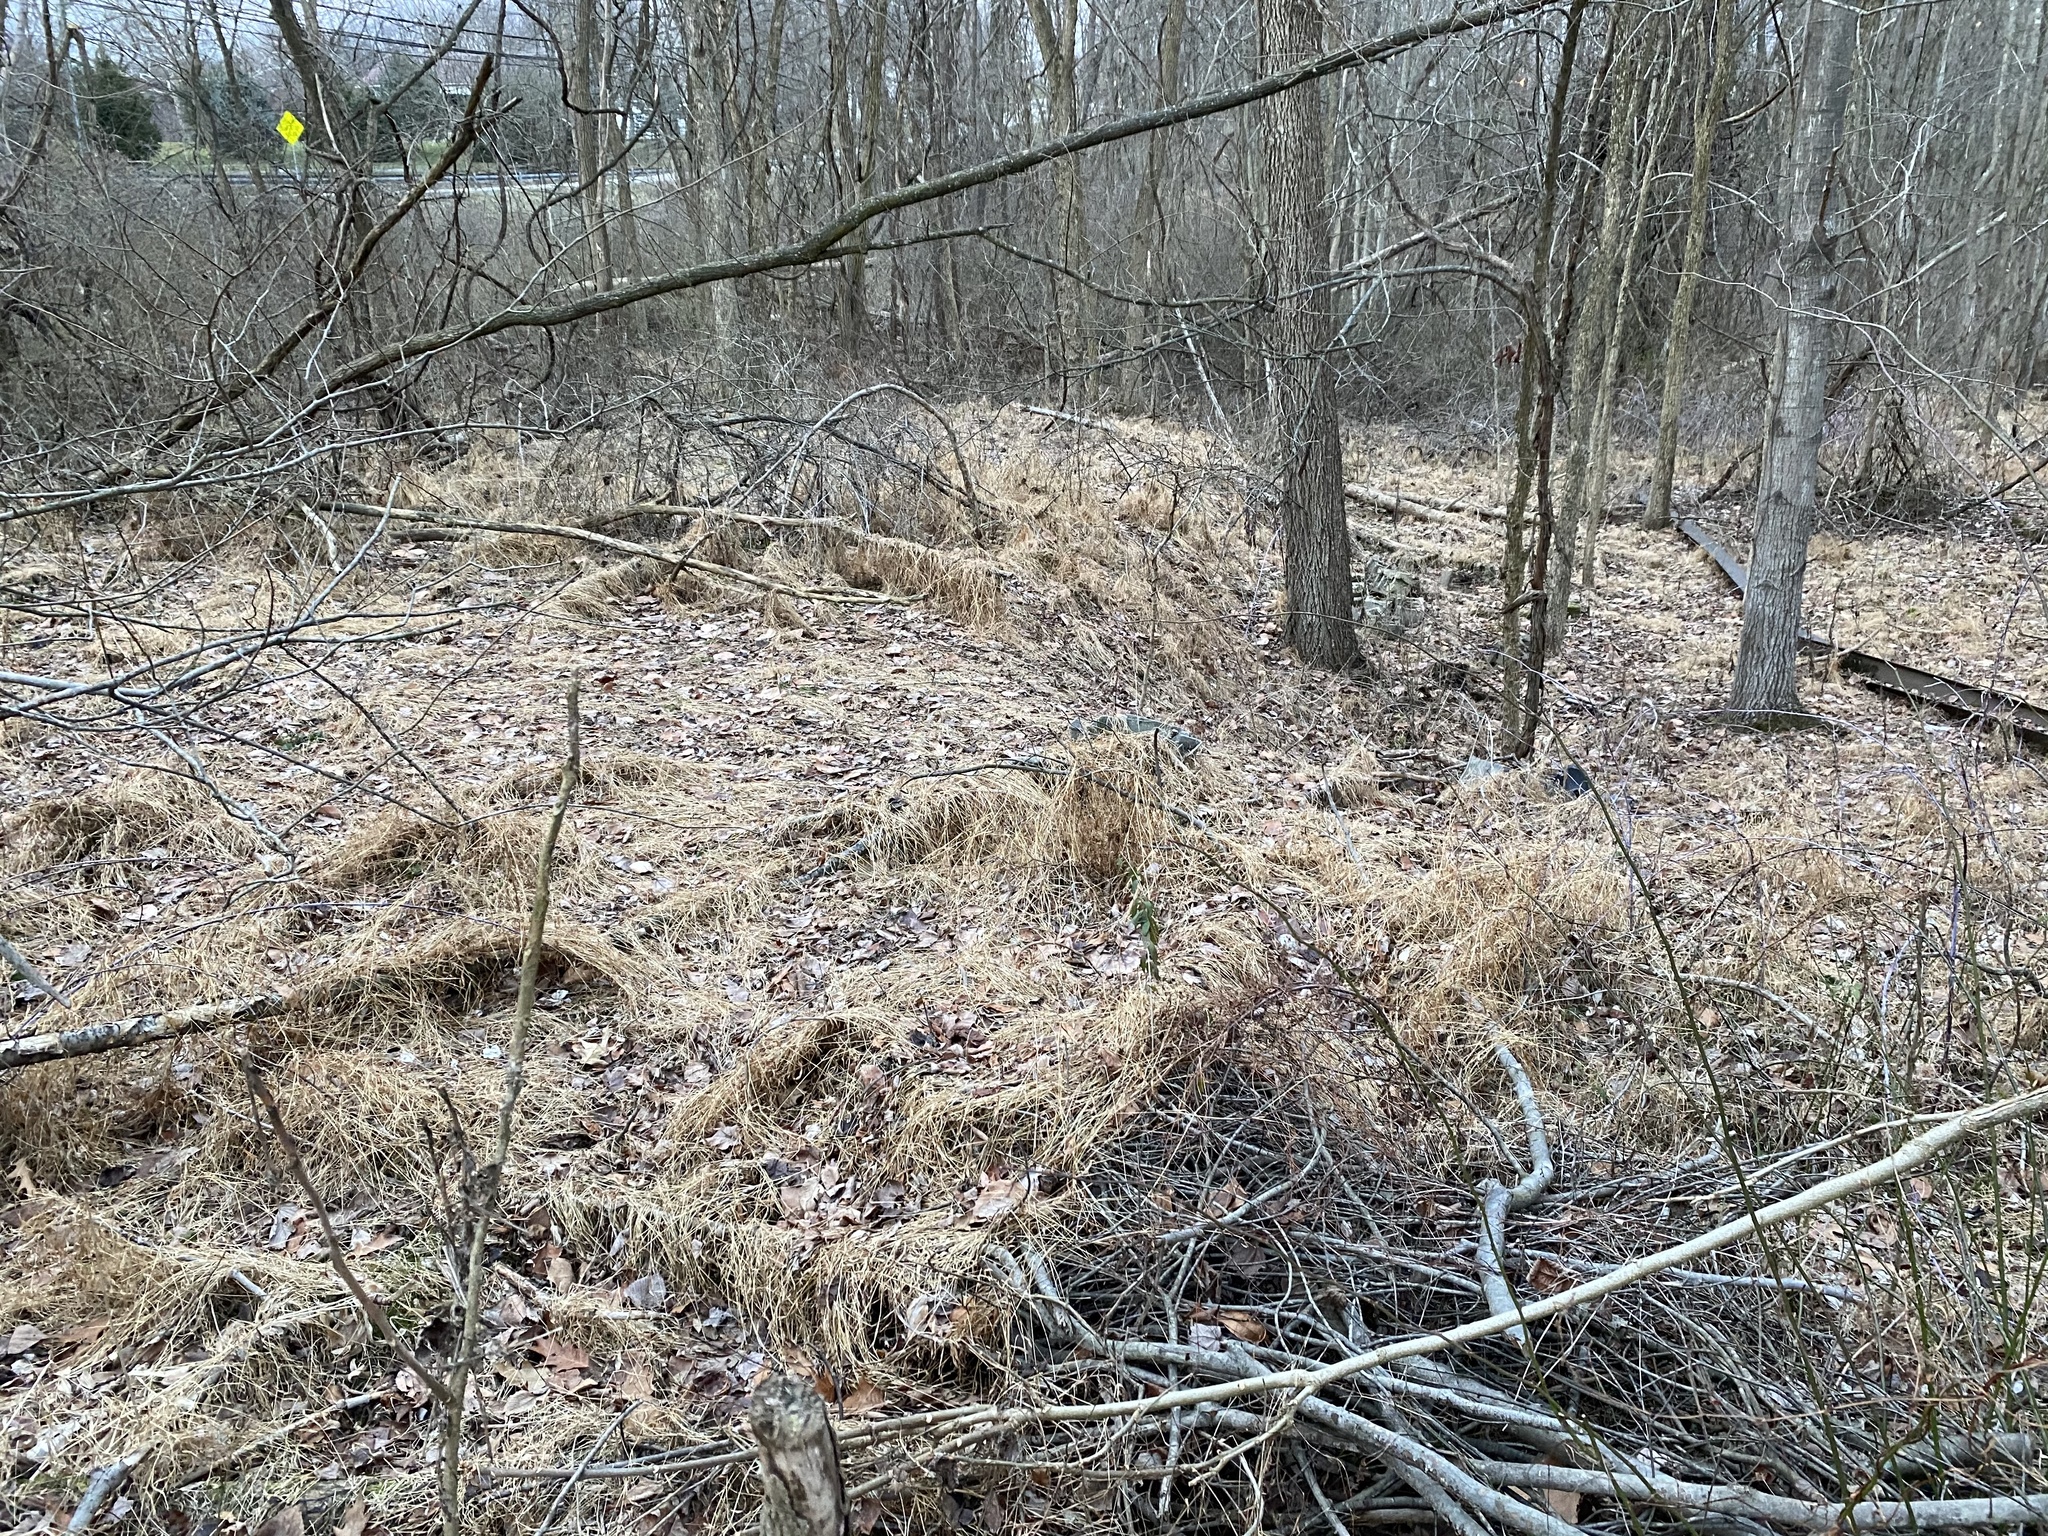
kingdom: Plantae
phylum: Tracheophyta
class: Liliopsida
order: Poales
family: Poaceae
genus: Microstegium
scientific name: Microstegium vimineum
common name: Japanese stiltgrass
